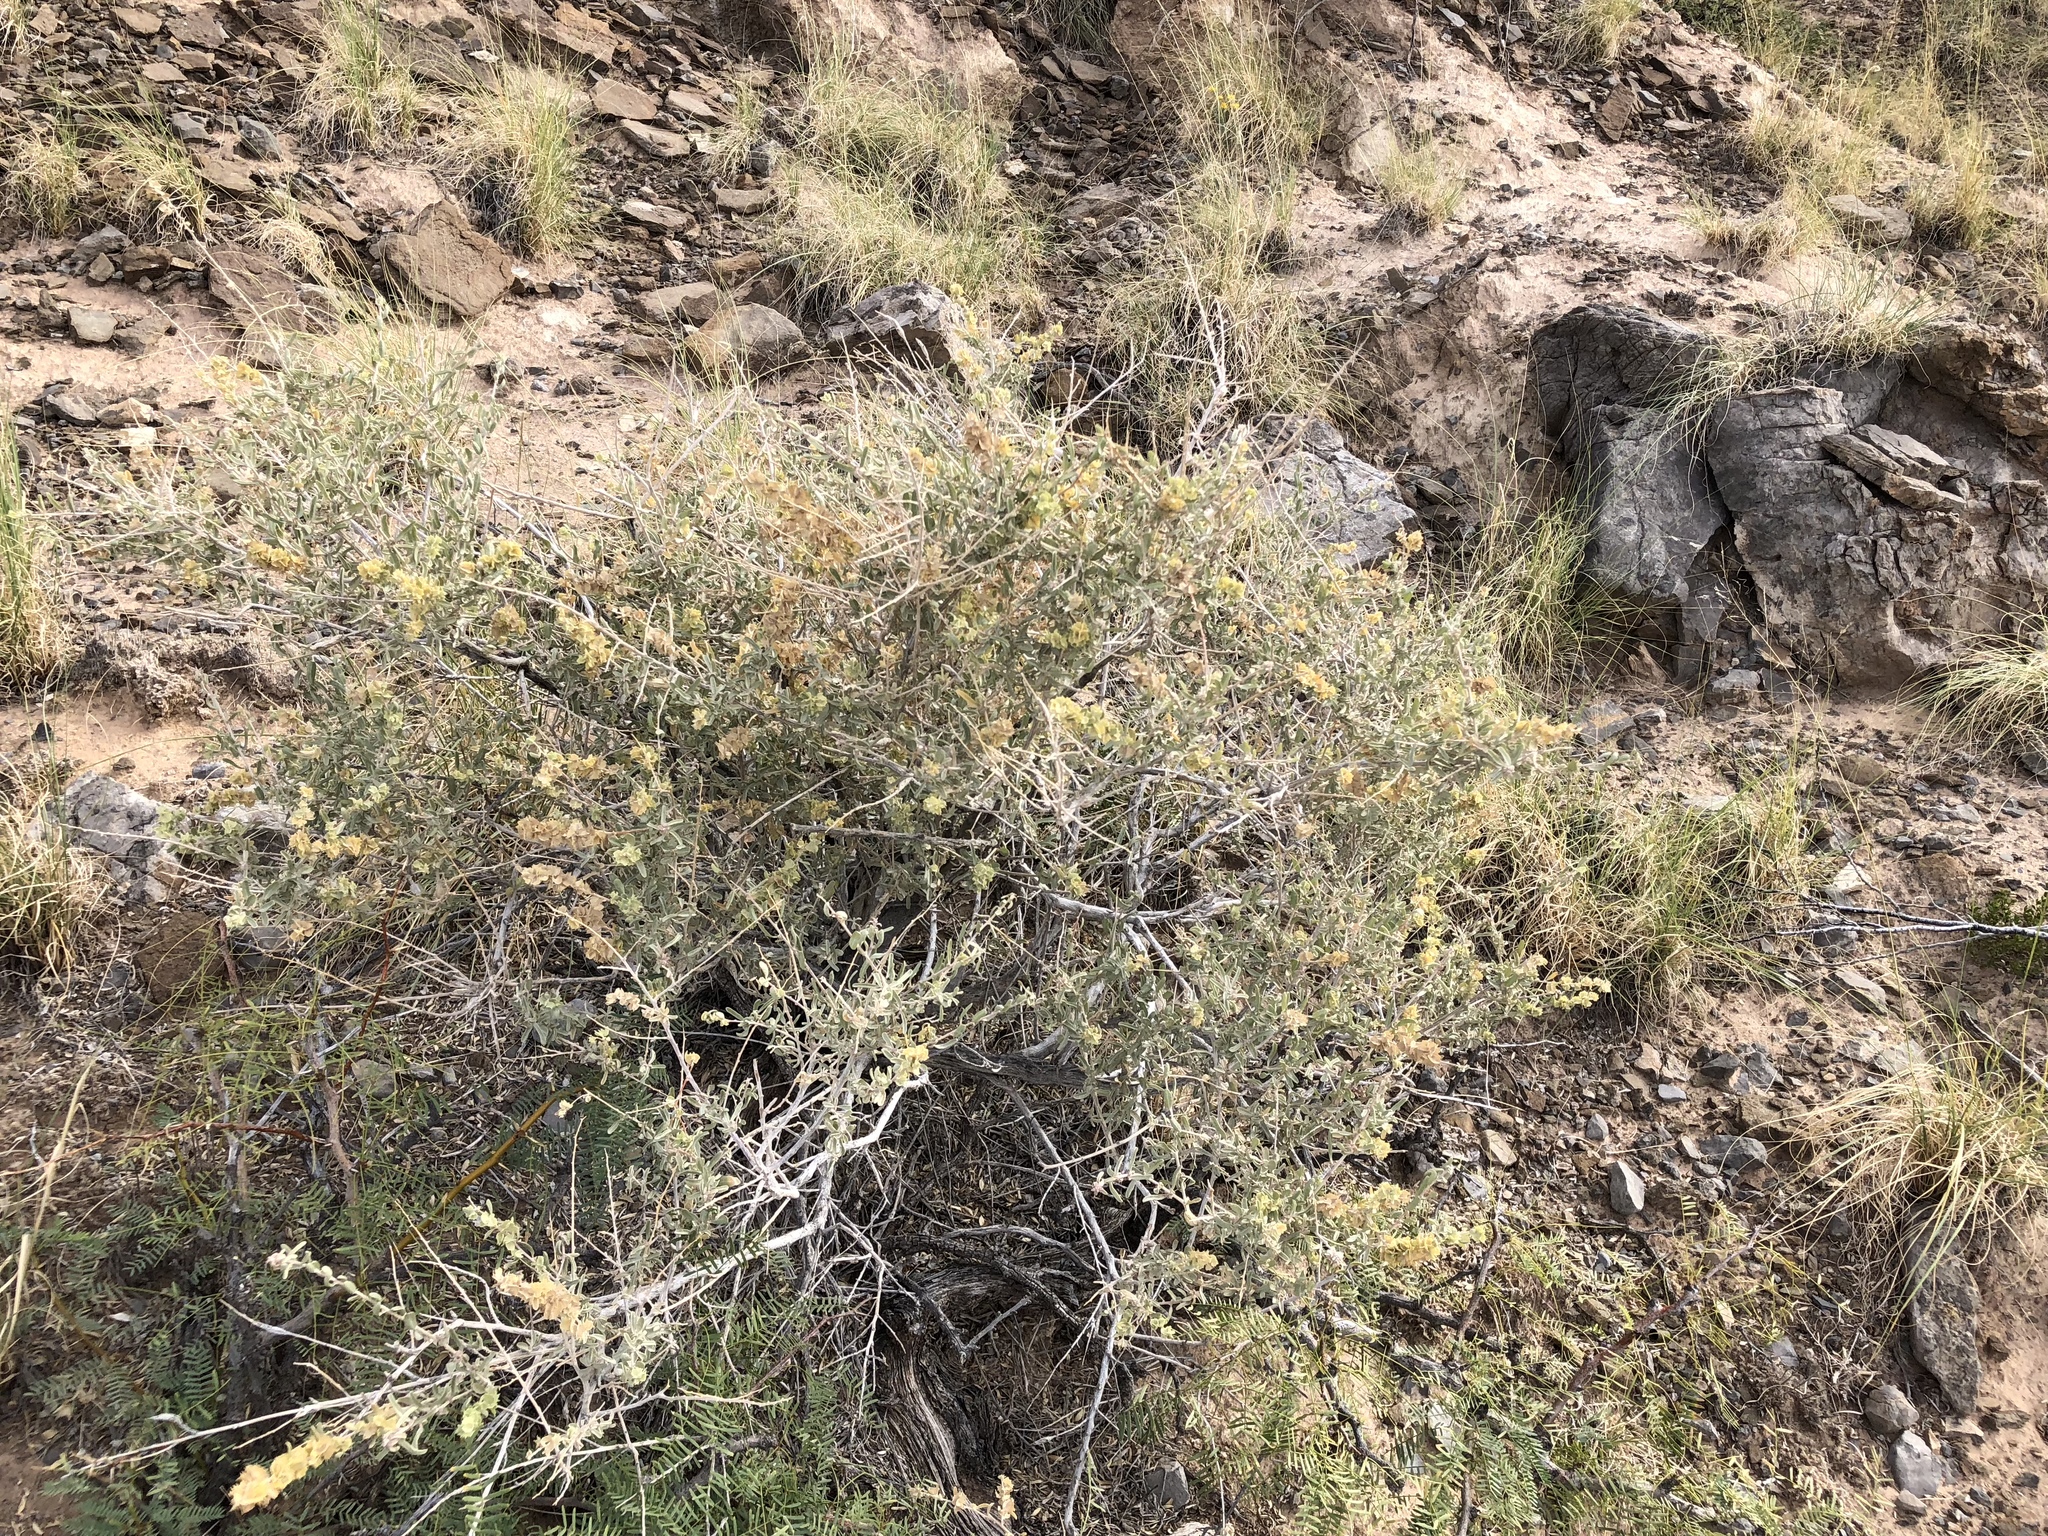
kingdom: Plantae
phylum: Tracheophyta
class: Magnoliopsida
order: Caryophyllales
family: Amaranthaceae
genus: Atriplex
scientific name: Atriplex canescens
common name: Four-wing saltbush
